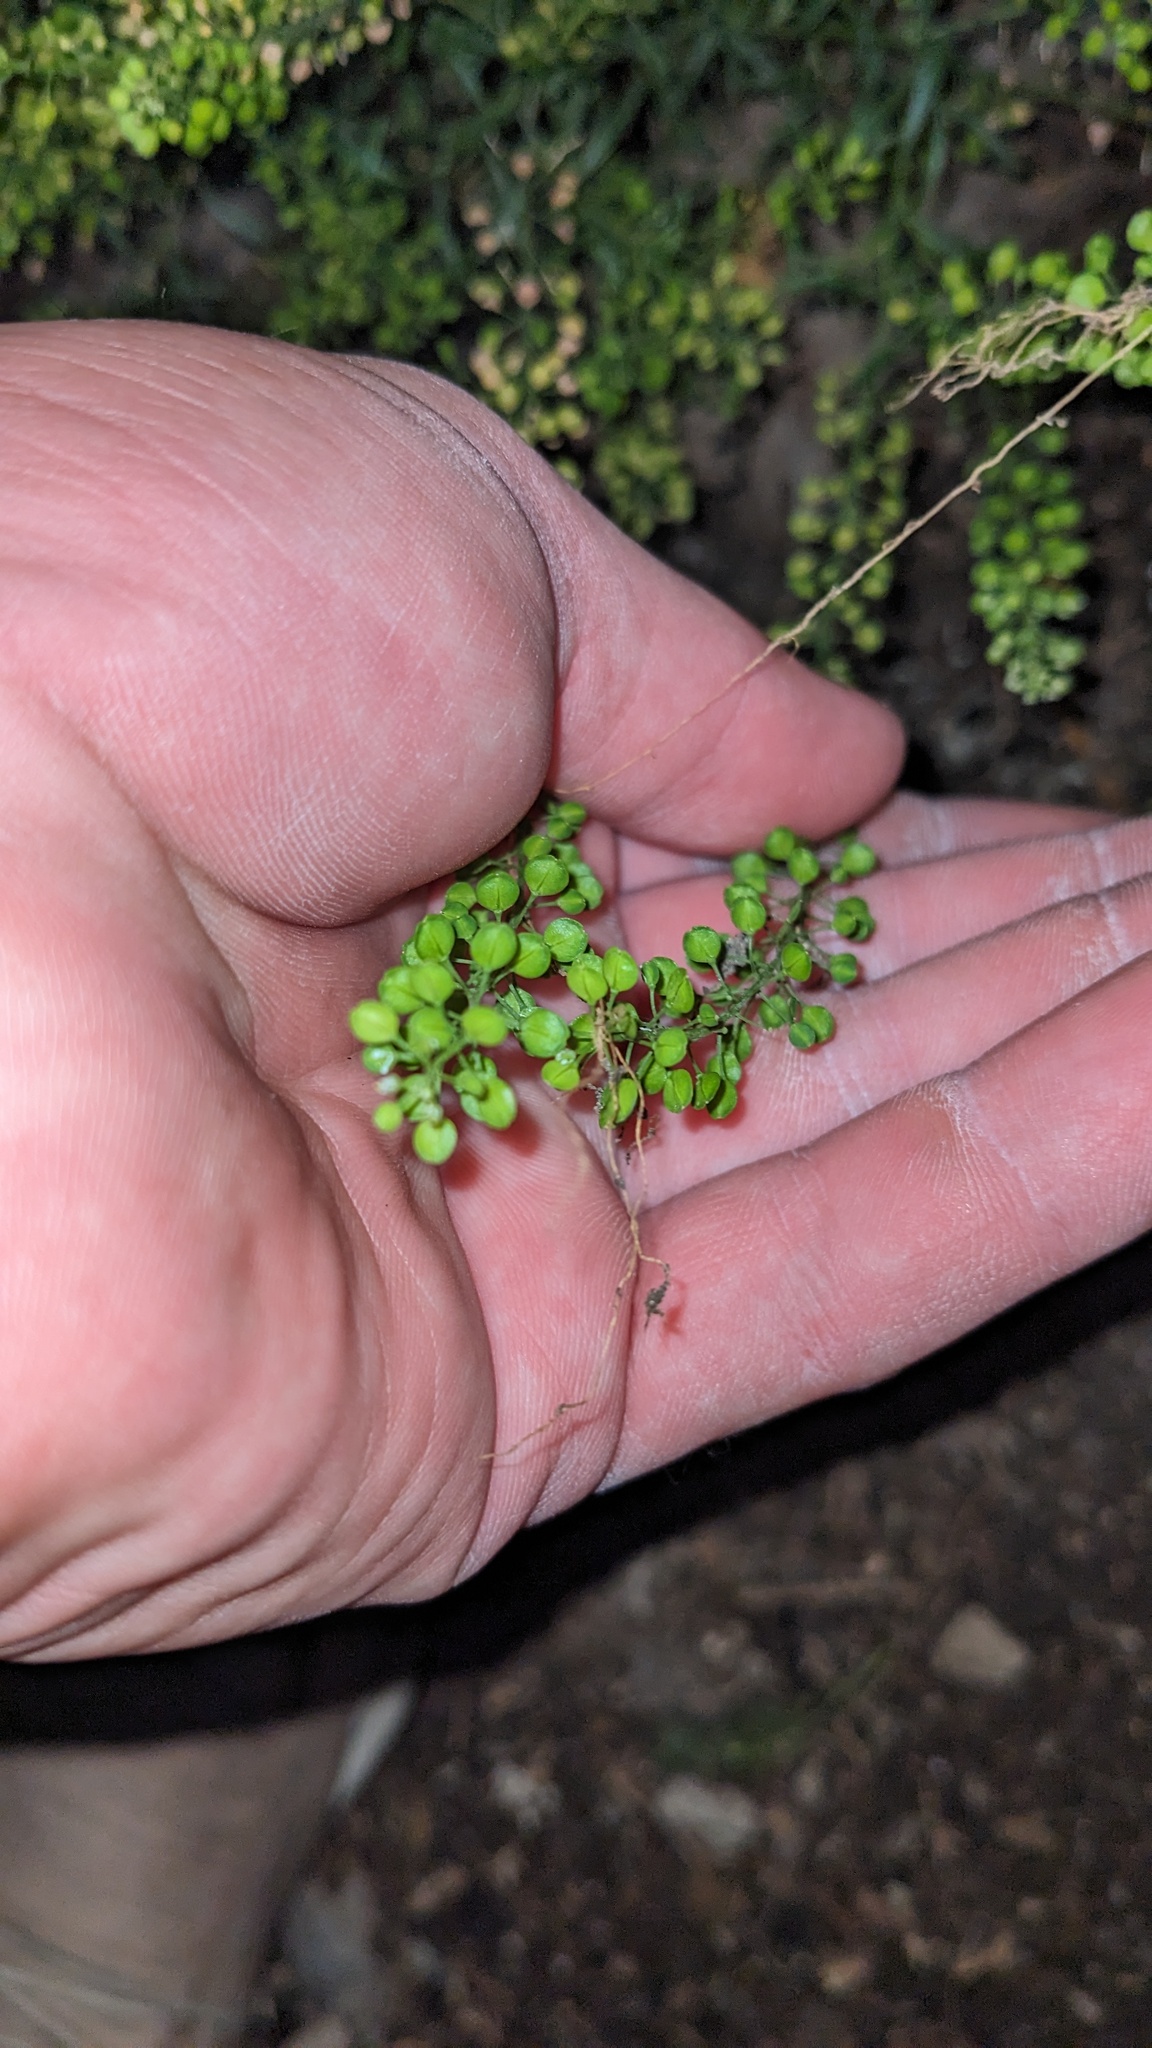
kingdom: Plantae
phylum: Tracheophyta
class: Magnoliopsida
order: Brassicales
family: Brassicaceae
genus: Lepidium
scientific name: Lepidium virginicum
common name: Least pepperwort
